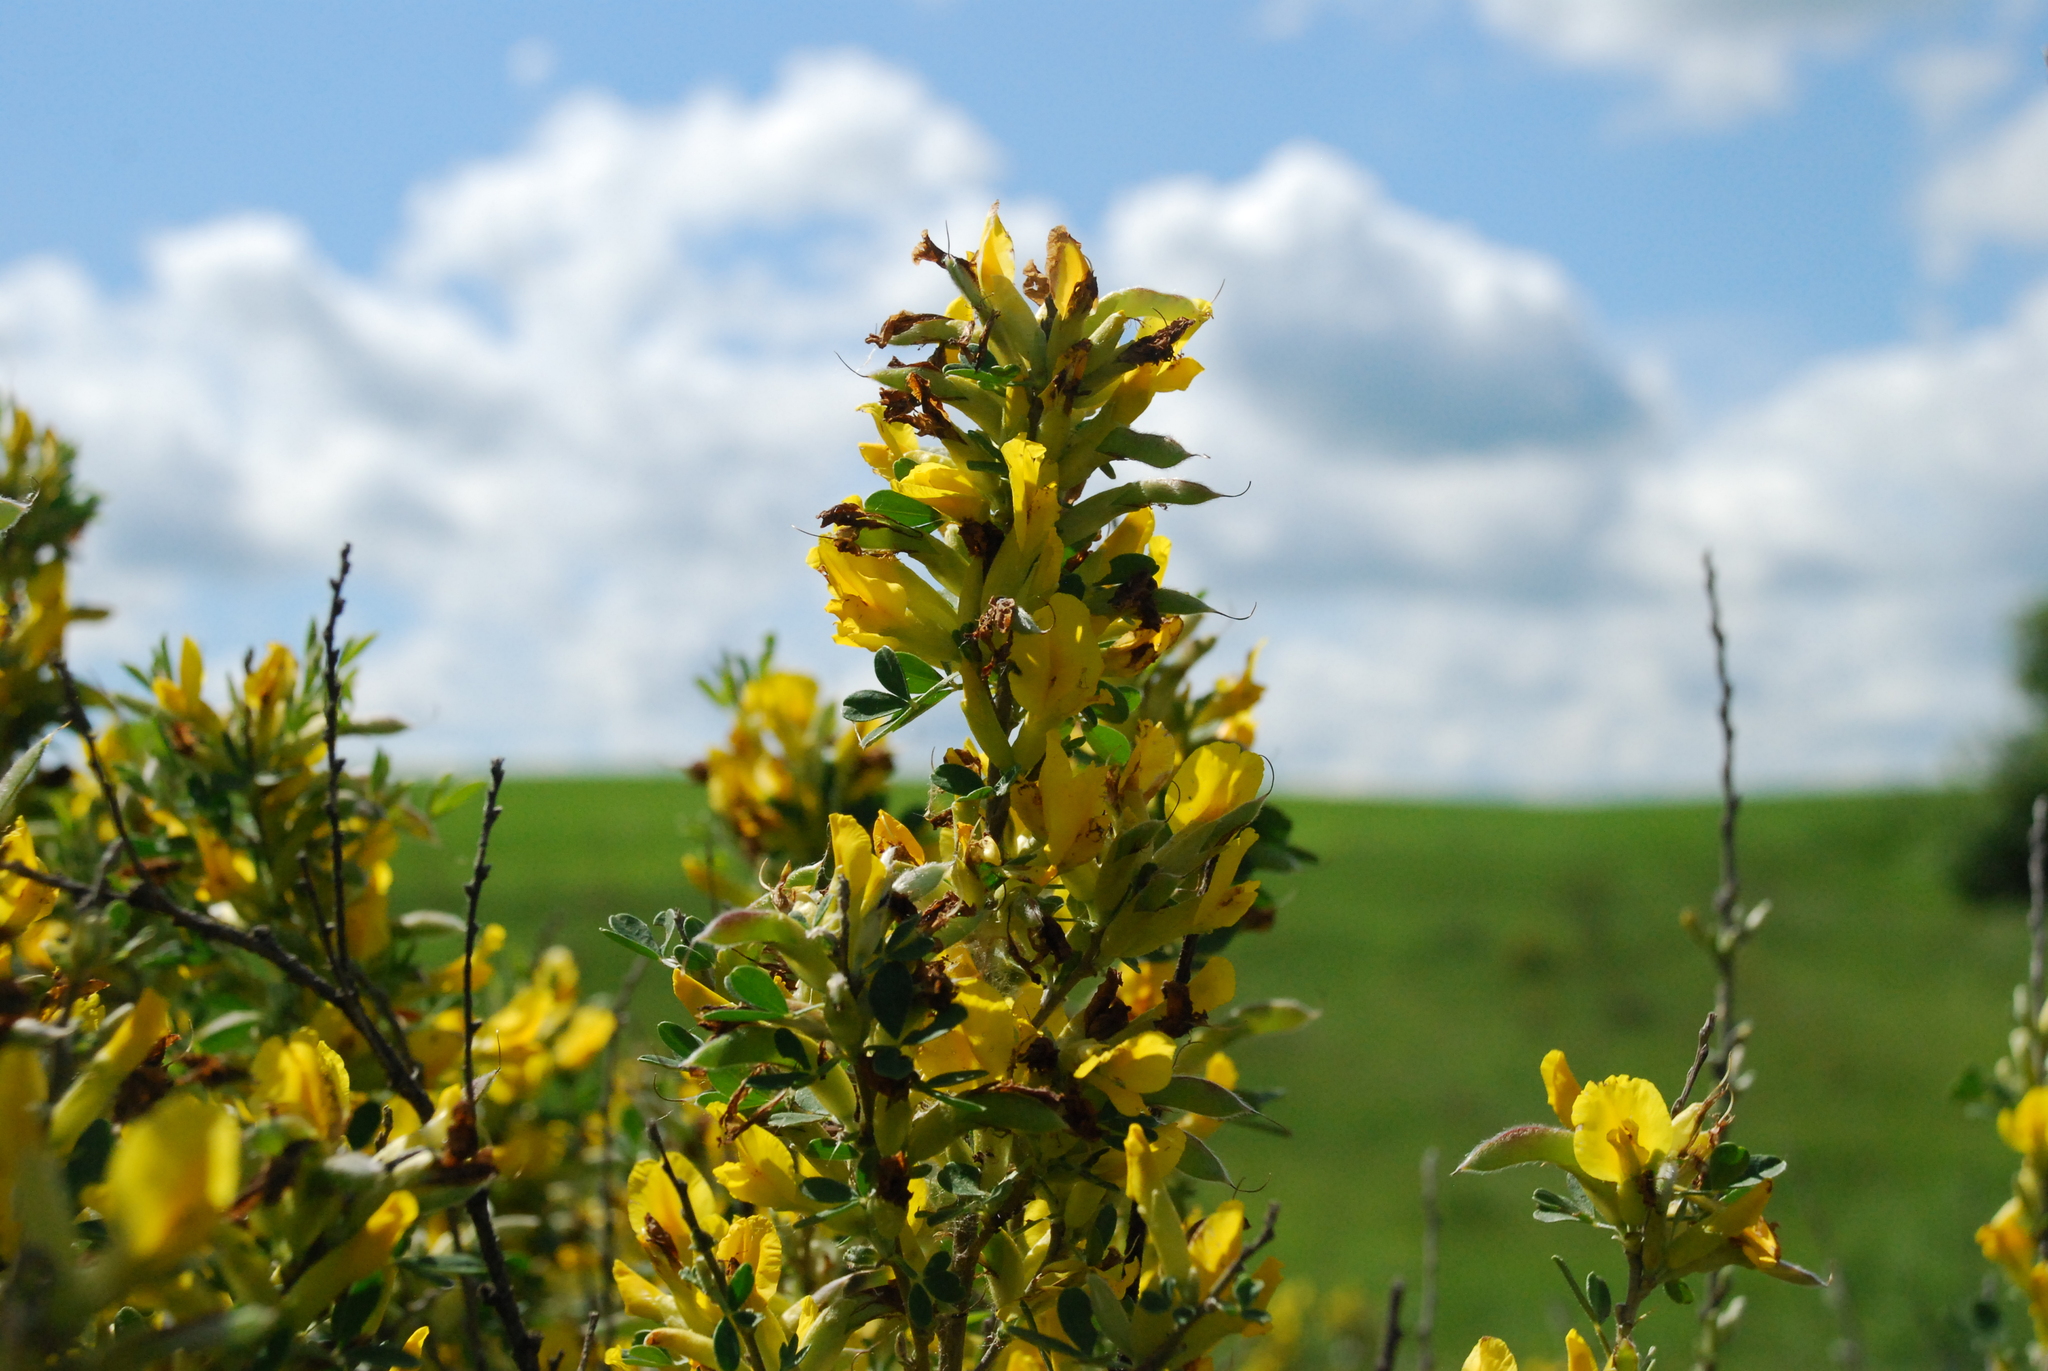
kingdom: Plantae
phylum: Tracheophyta
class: Magnoliopsida
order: Fabales
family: Fabaceae
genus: Chamaecytisus
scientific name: Chamaecytisus ruthenicus
